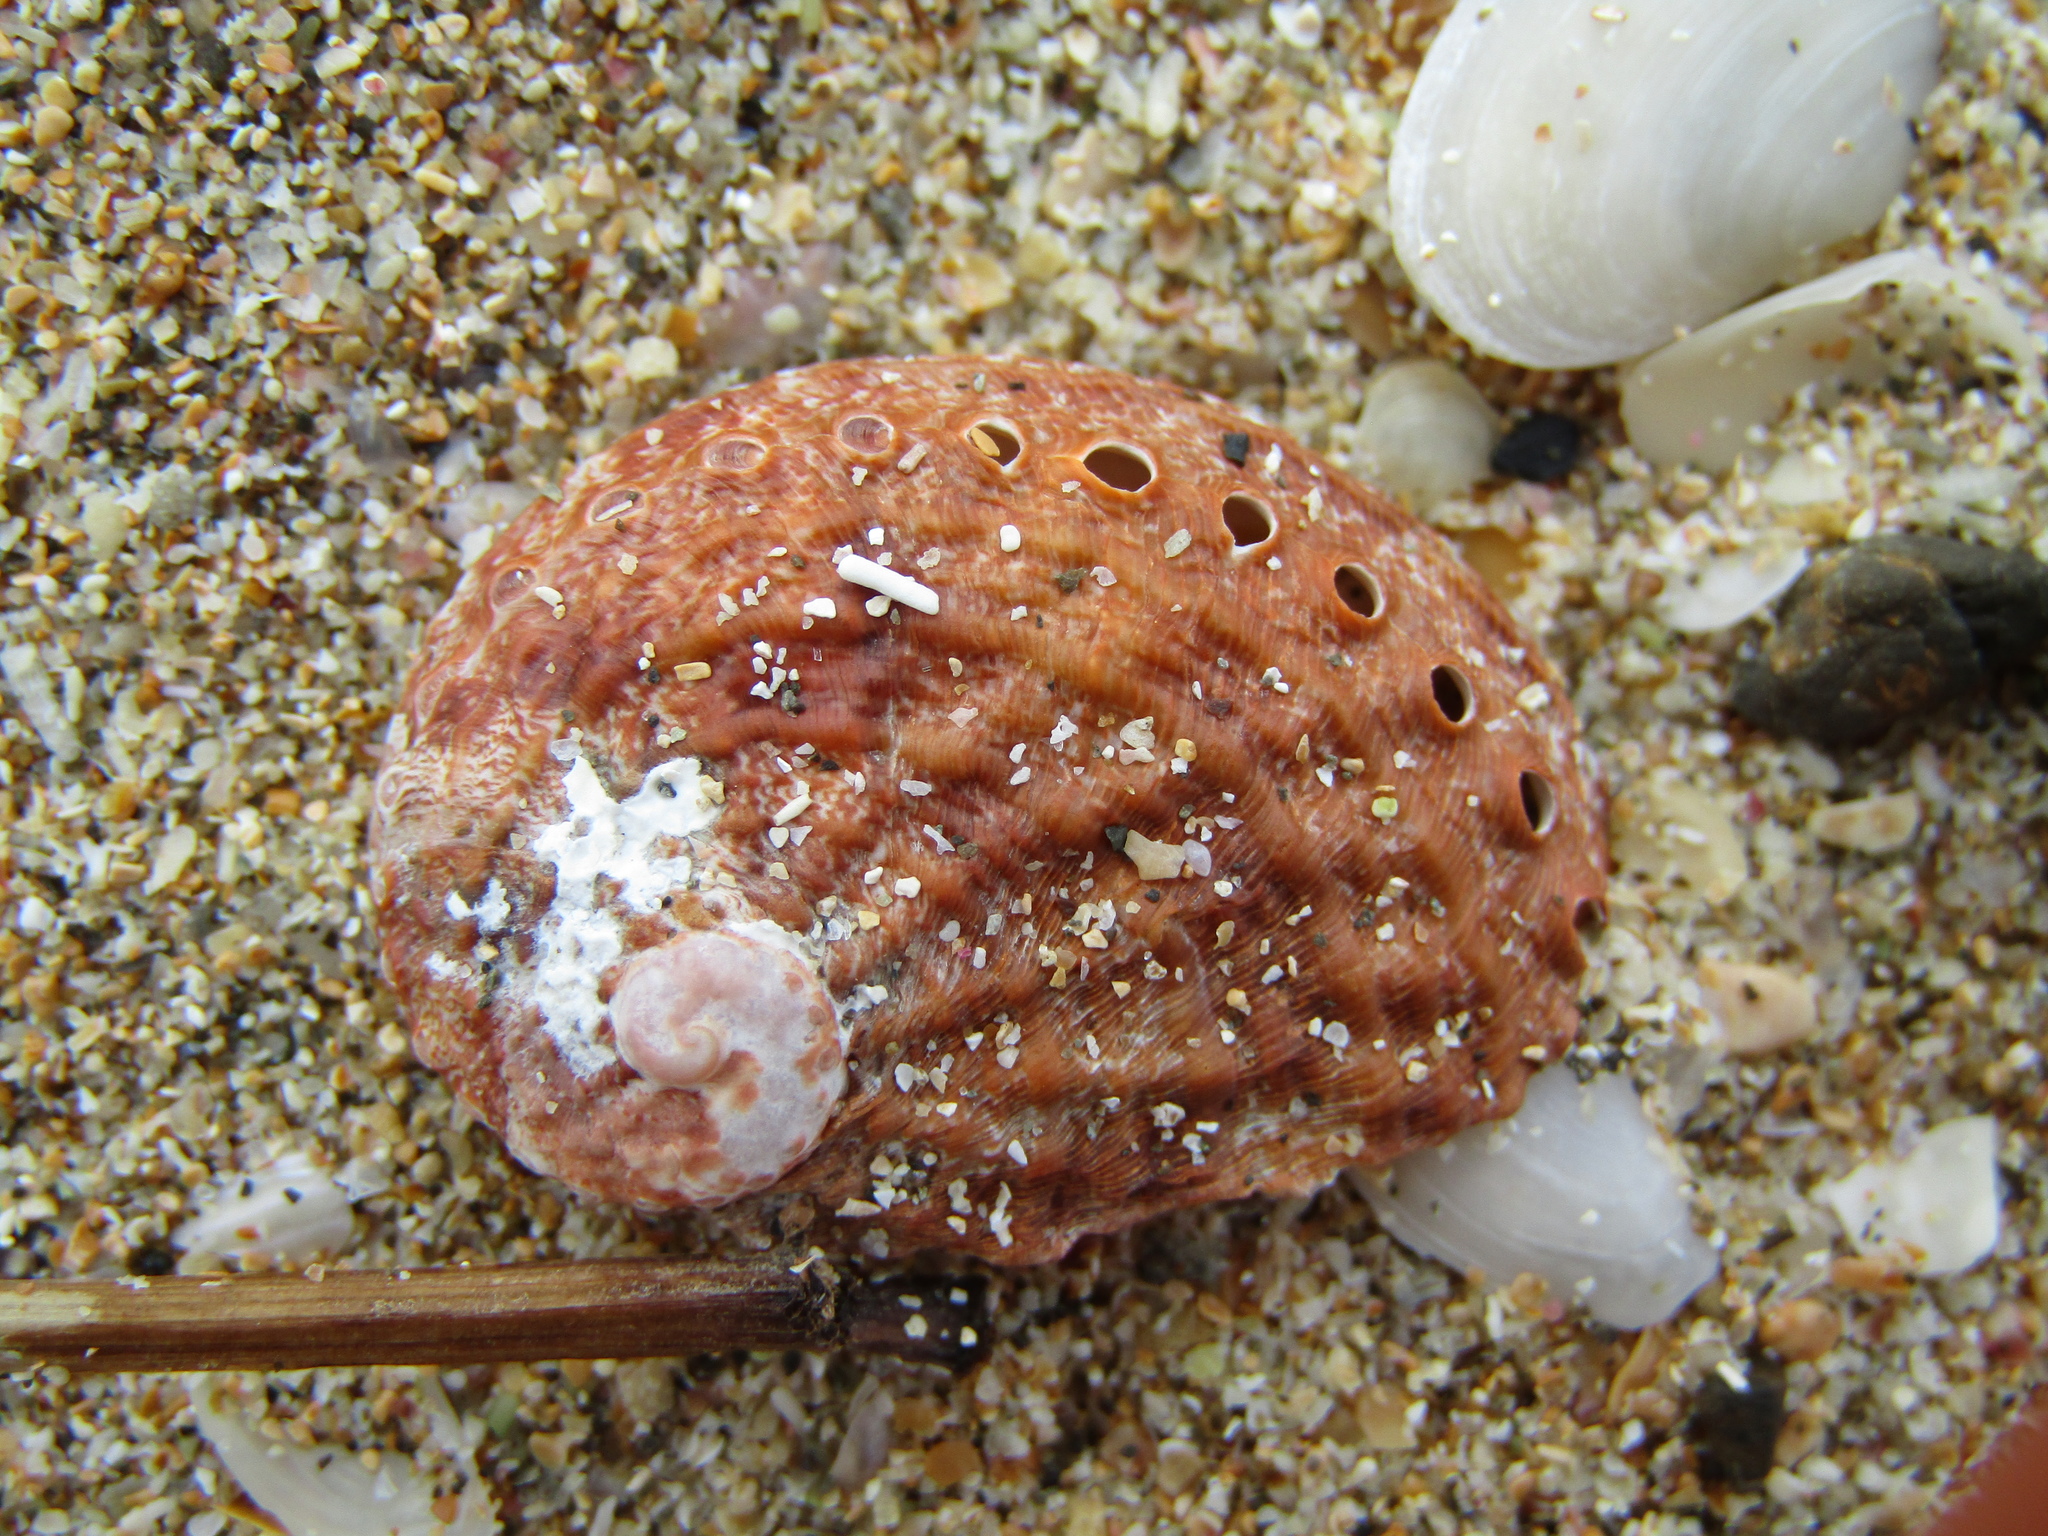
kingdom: Animalia
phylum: Mollusca
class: Gastropoda
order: Lepetellida
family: Haliotidae
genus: Haliotis
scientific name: Haliotis australis
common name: Silver abalone
